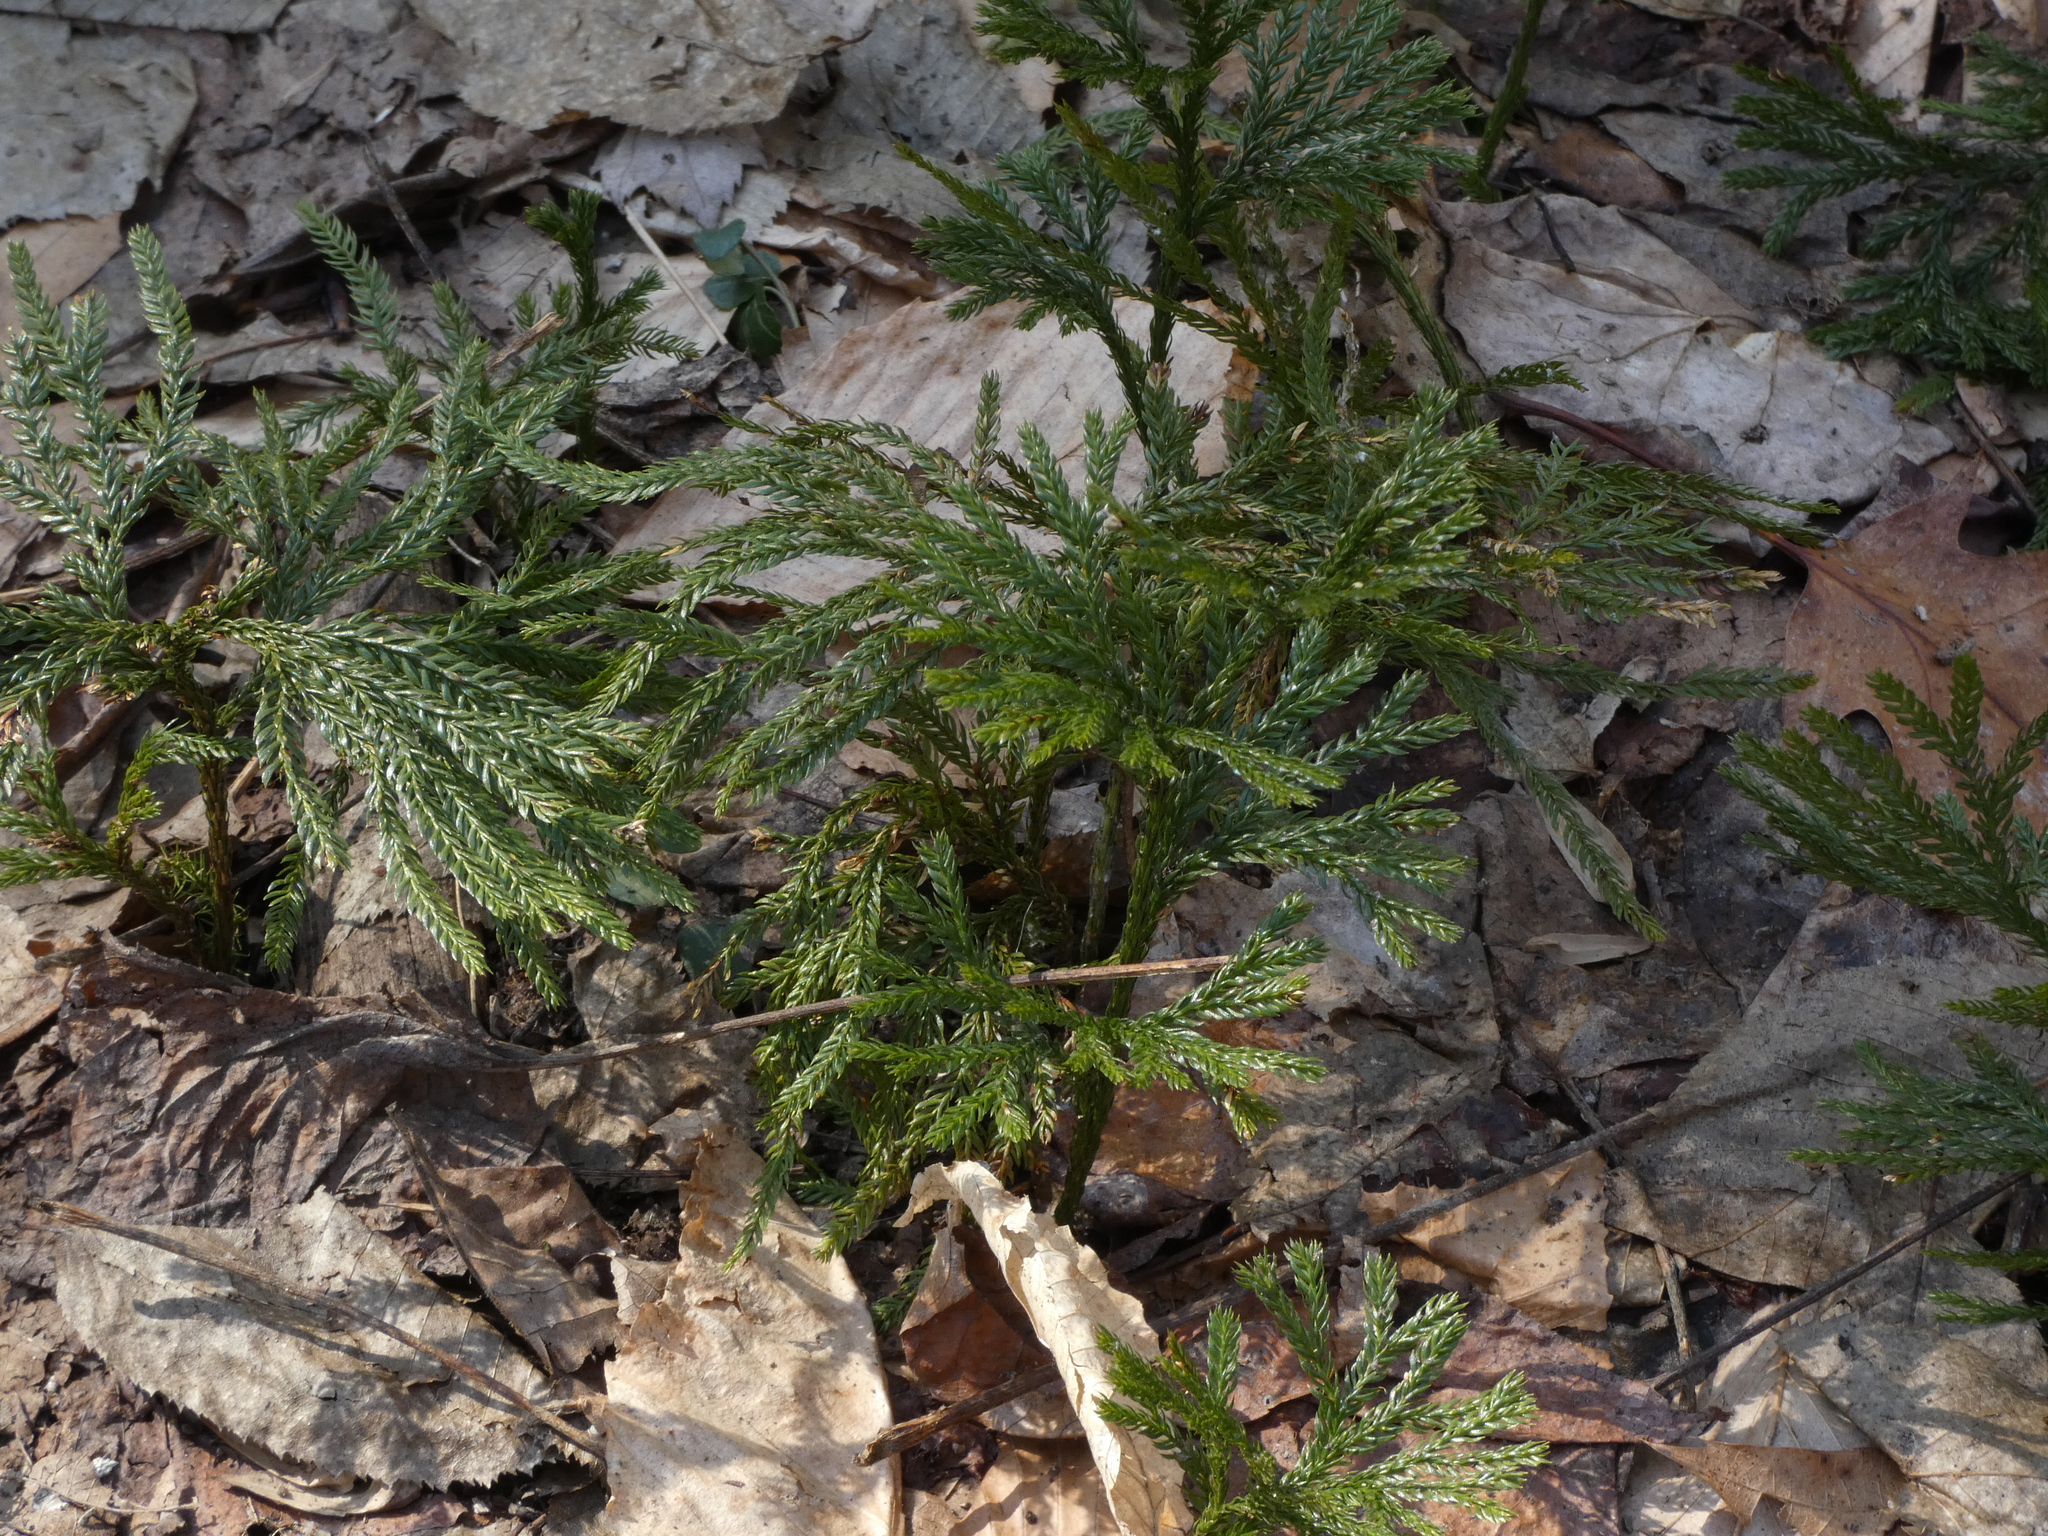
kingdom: Plantae
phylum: Tracheophyta
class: Lycopodiopsida
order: Lycopodiales
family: Lycopodiaceae
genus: Dendrolycopodium
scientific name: Dendrolycopodium obscurum
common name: Common ground-pine
